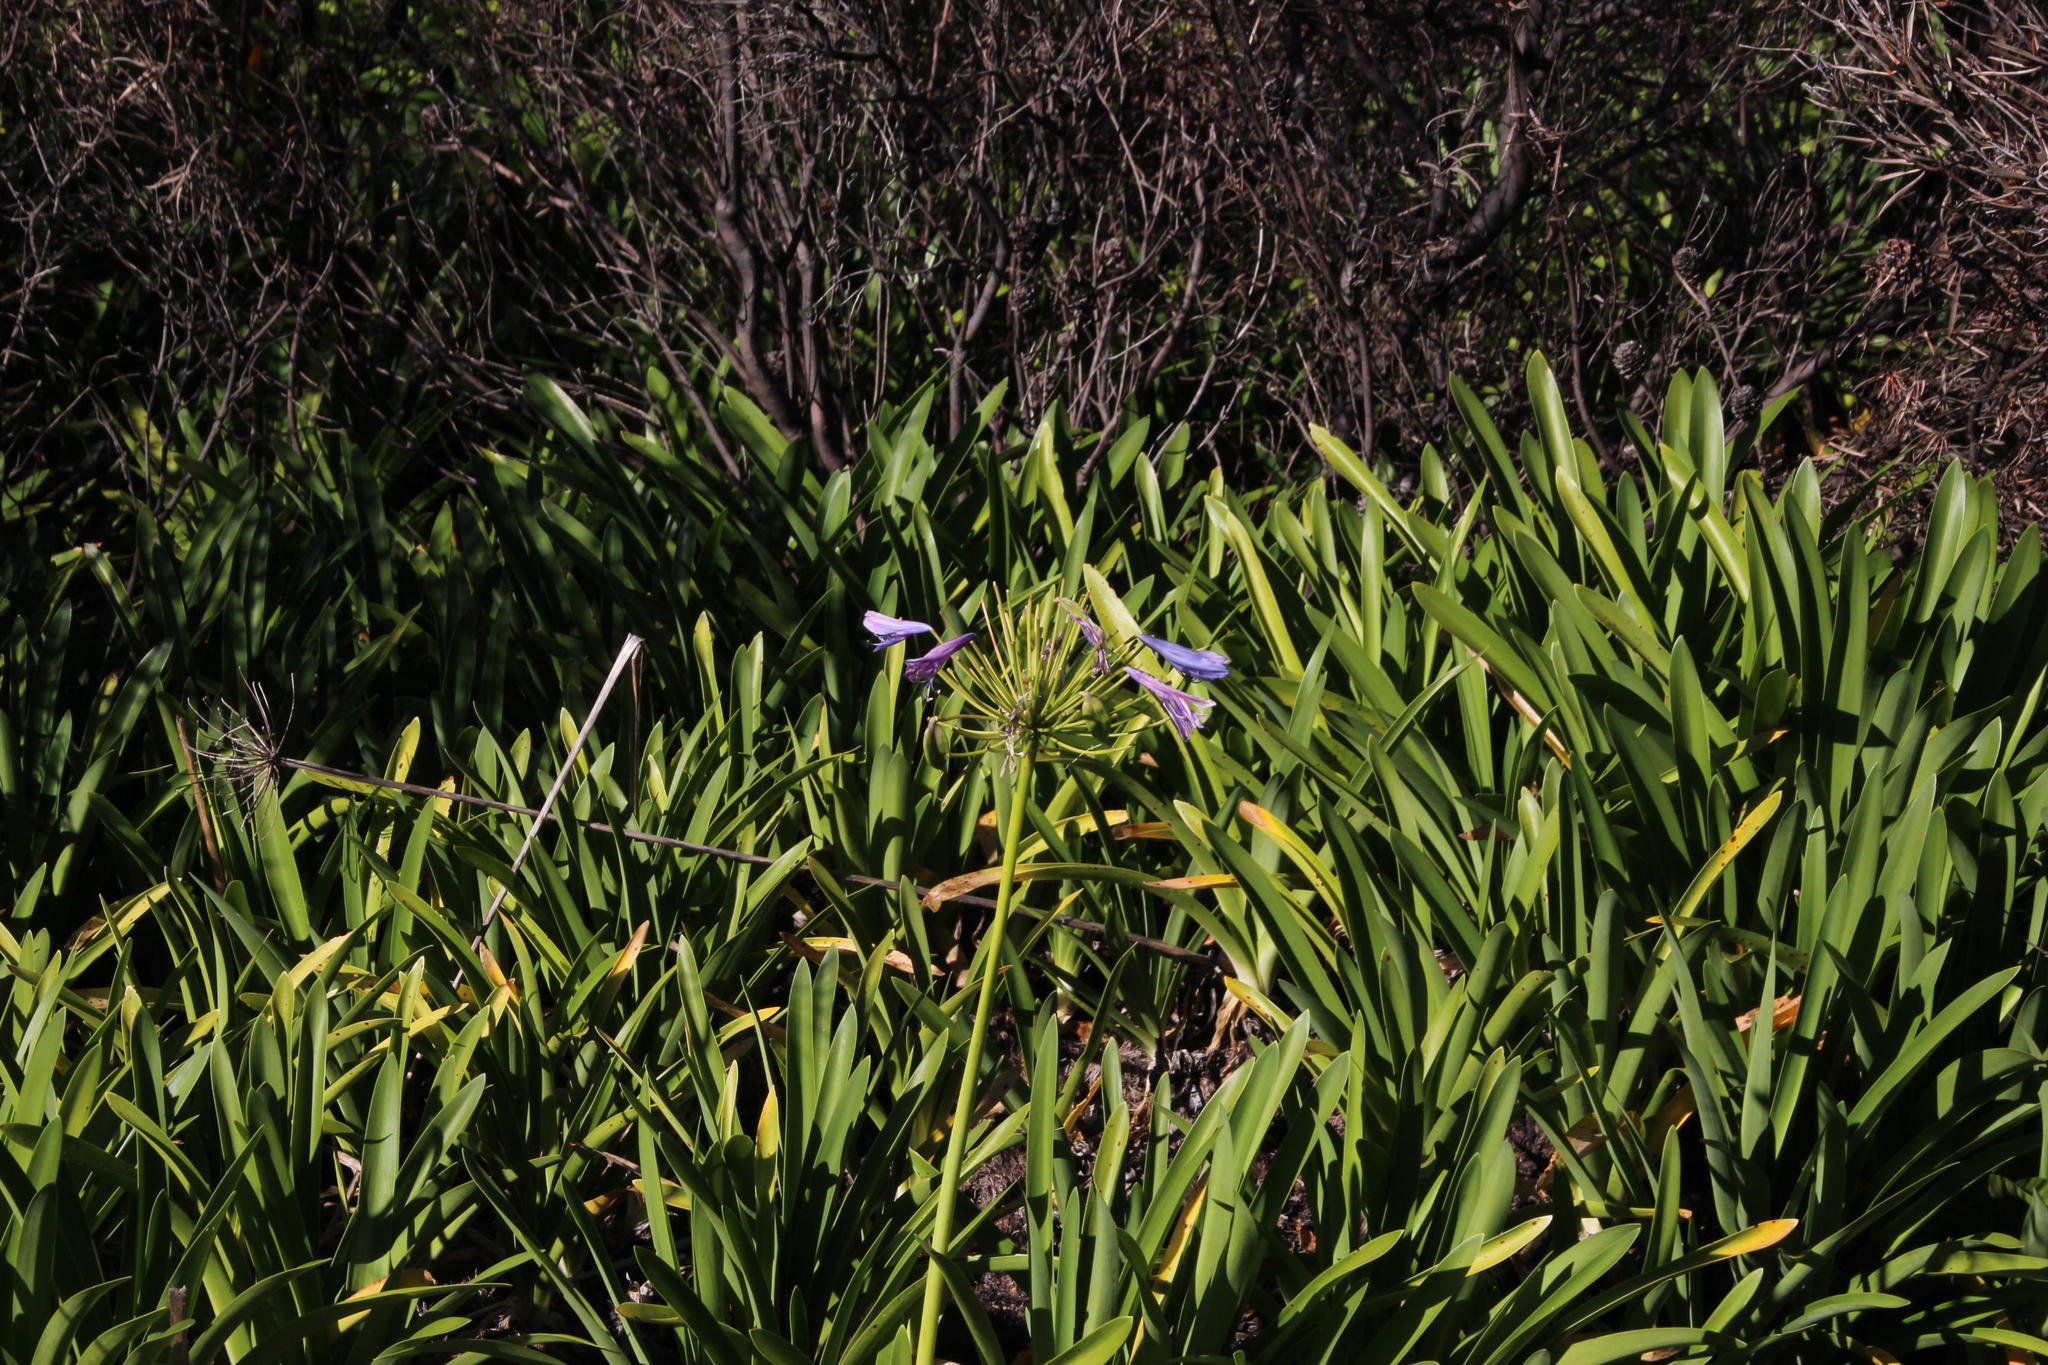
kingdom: Plantae
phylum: Tracheophyta
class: Liliopsida
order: Asparagales
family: Amaryllidaceae
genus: Agapanthus
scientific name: Agapanthus praecox
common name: African-lily
